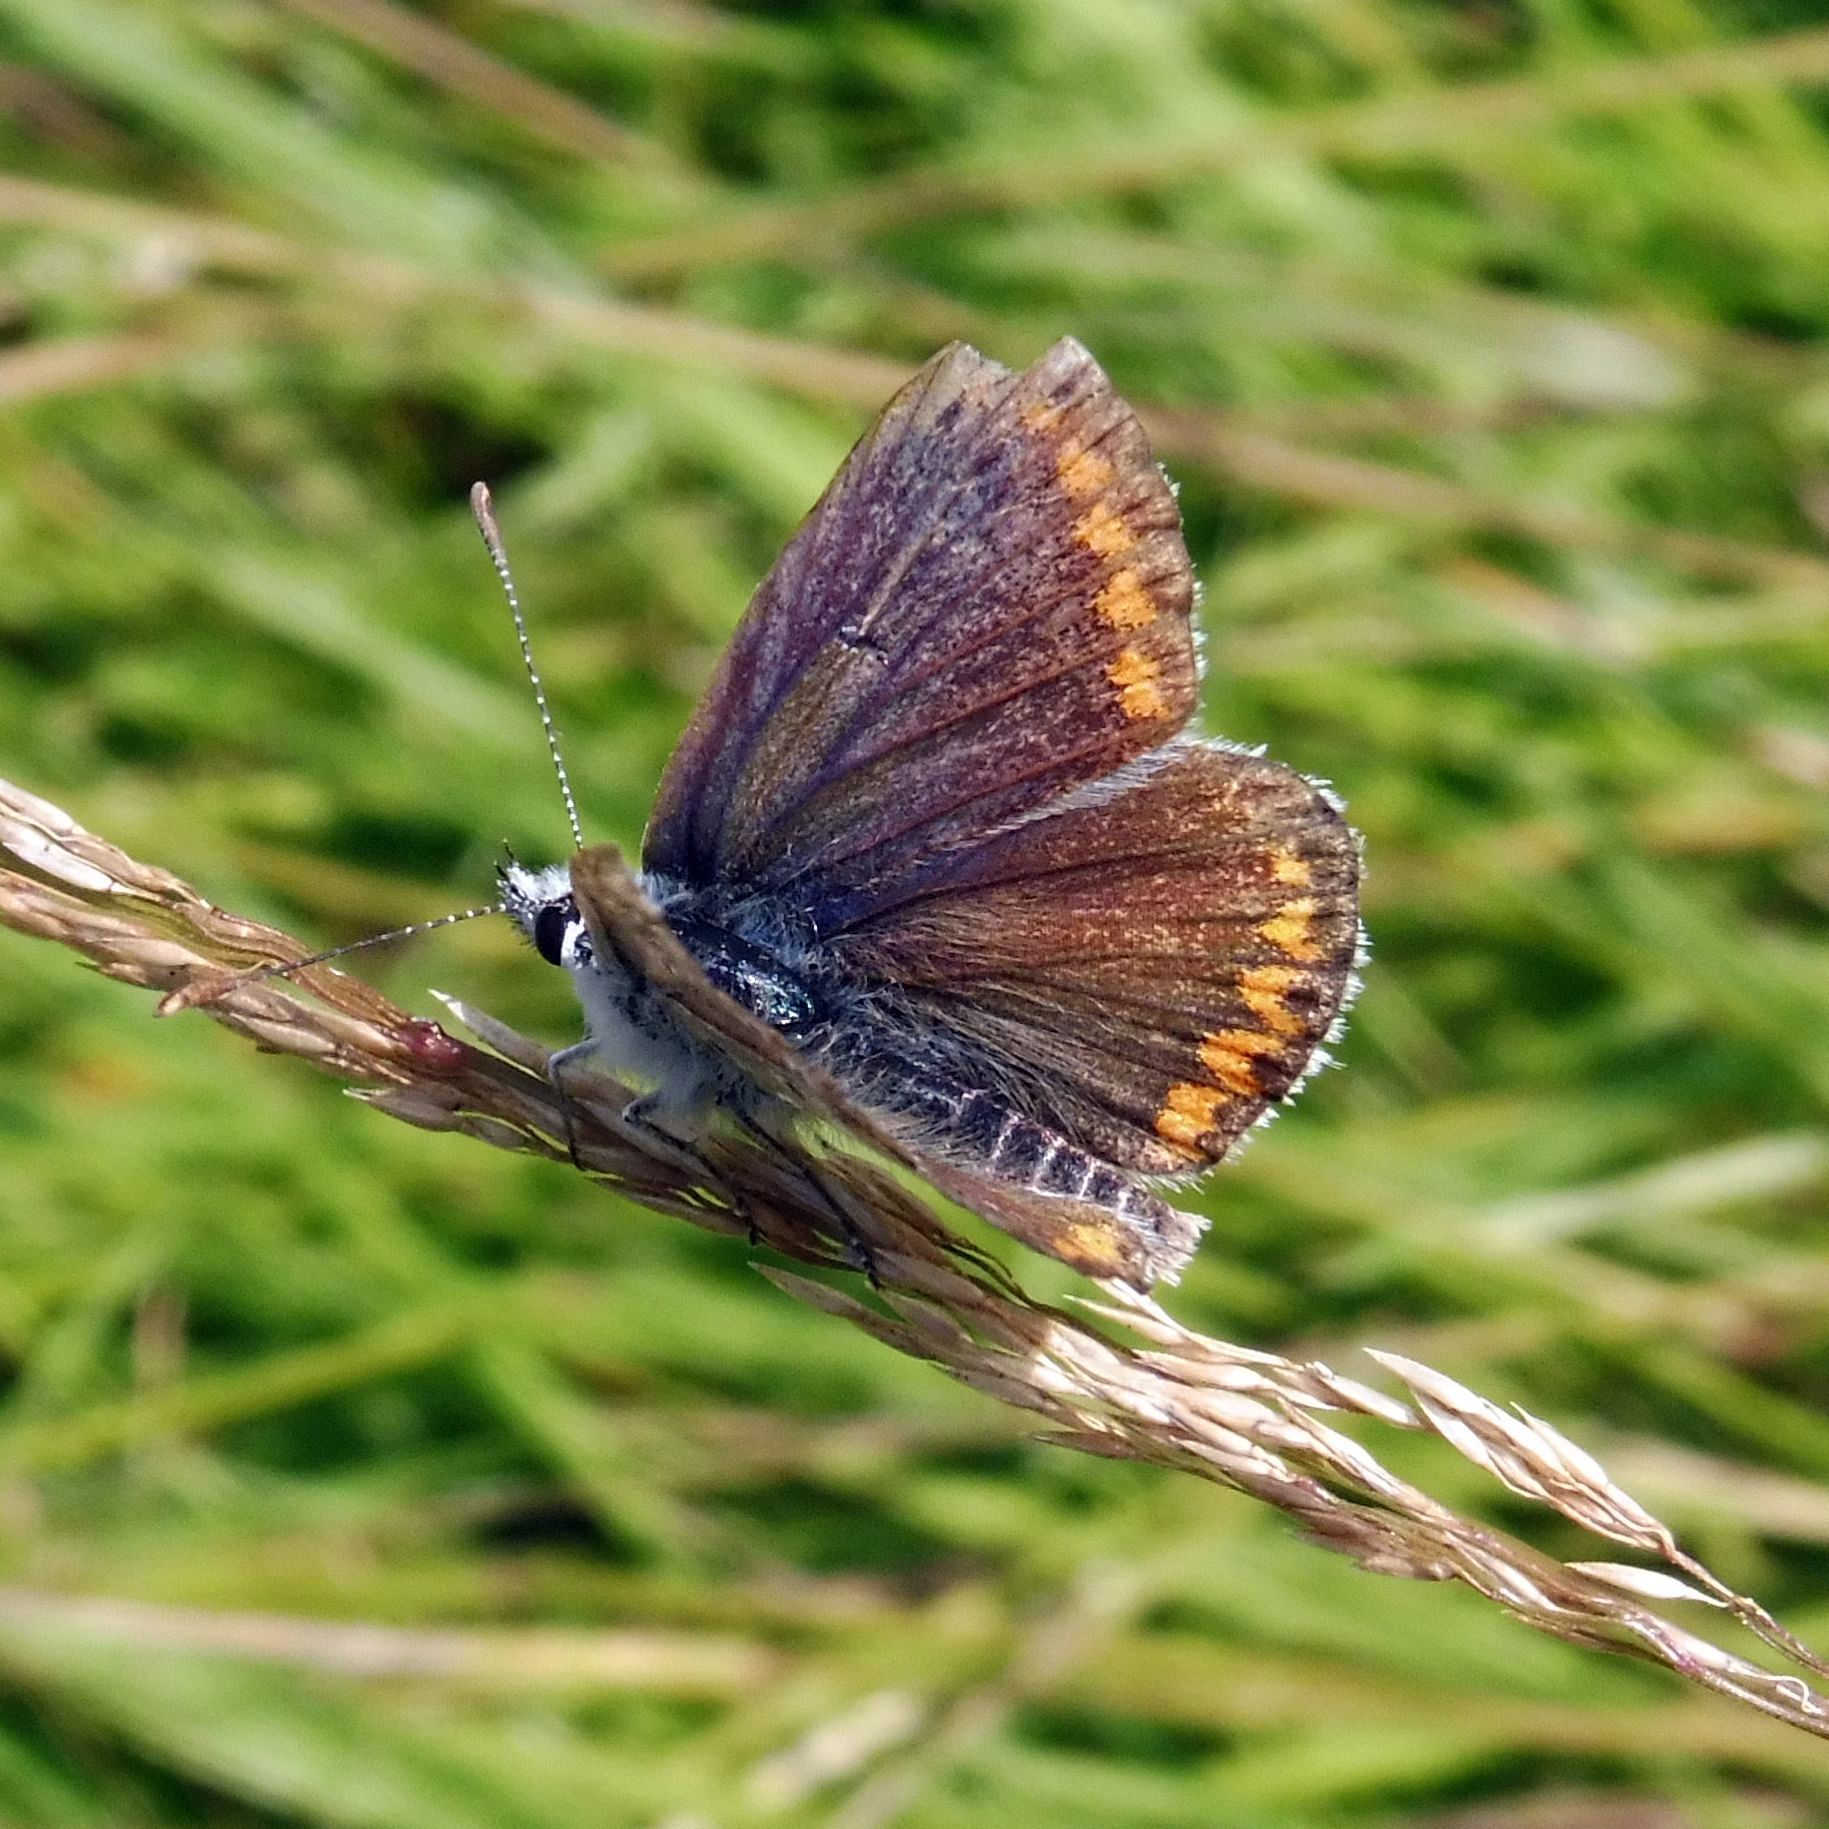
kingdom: Animalia
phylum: Arthropoda
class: Insecta
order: Lepidoptera
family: Lycaenidae
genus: Aricia
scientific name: Aricia agestis
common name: Brown argus
